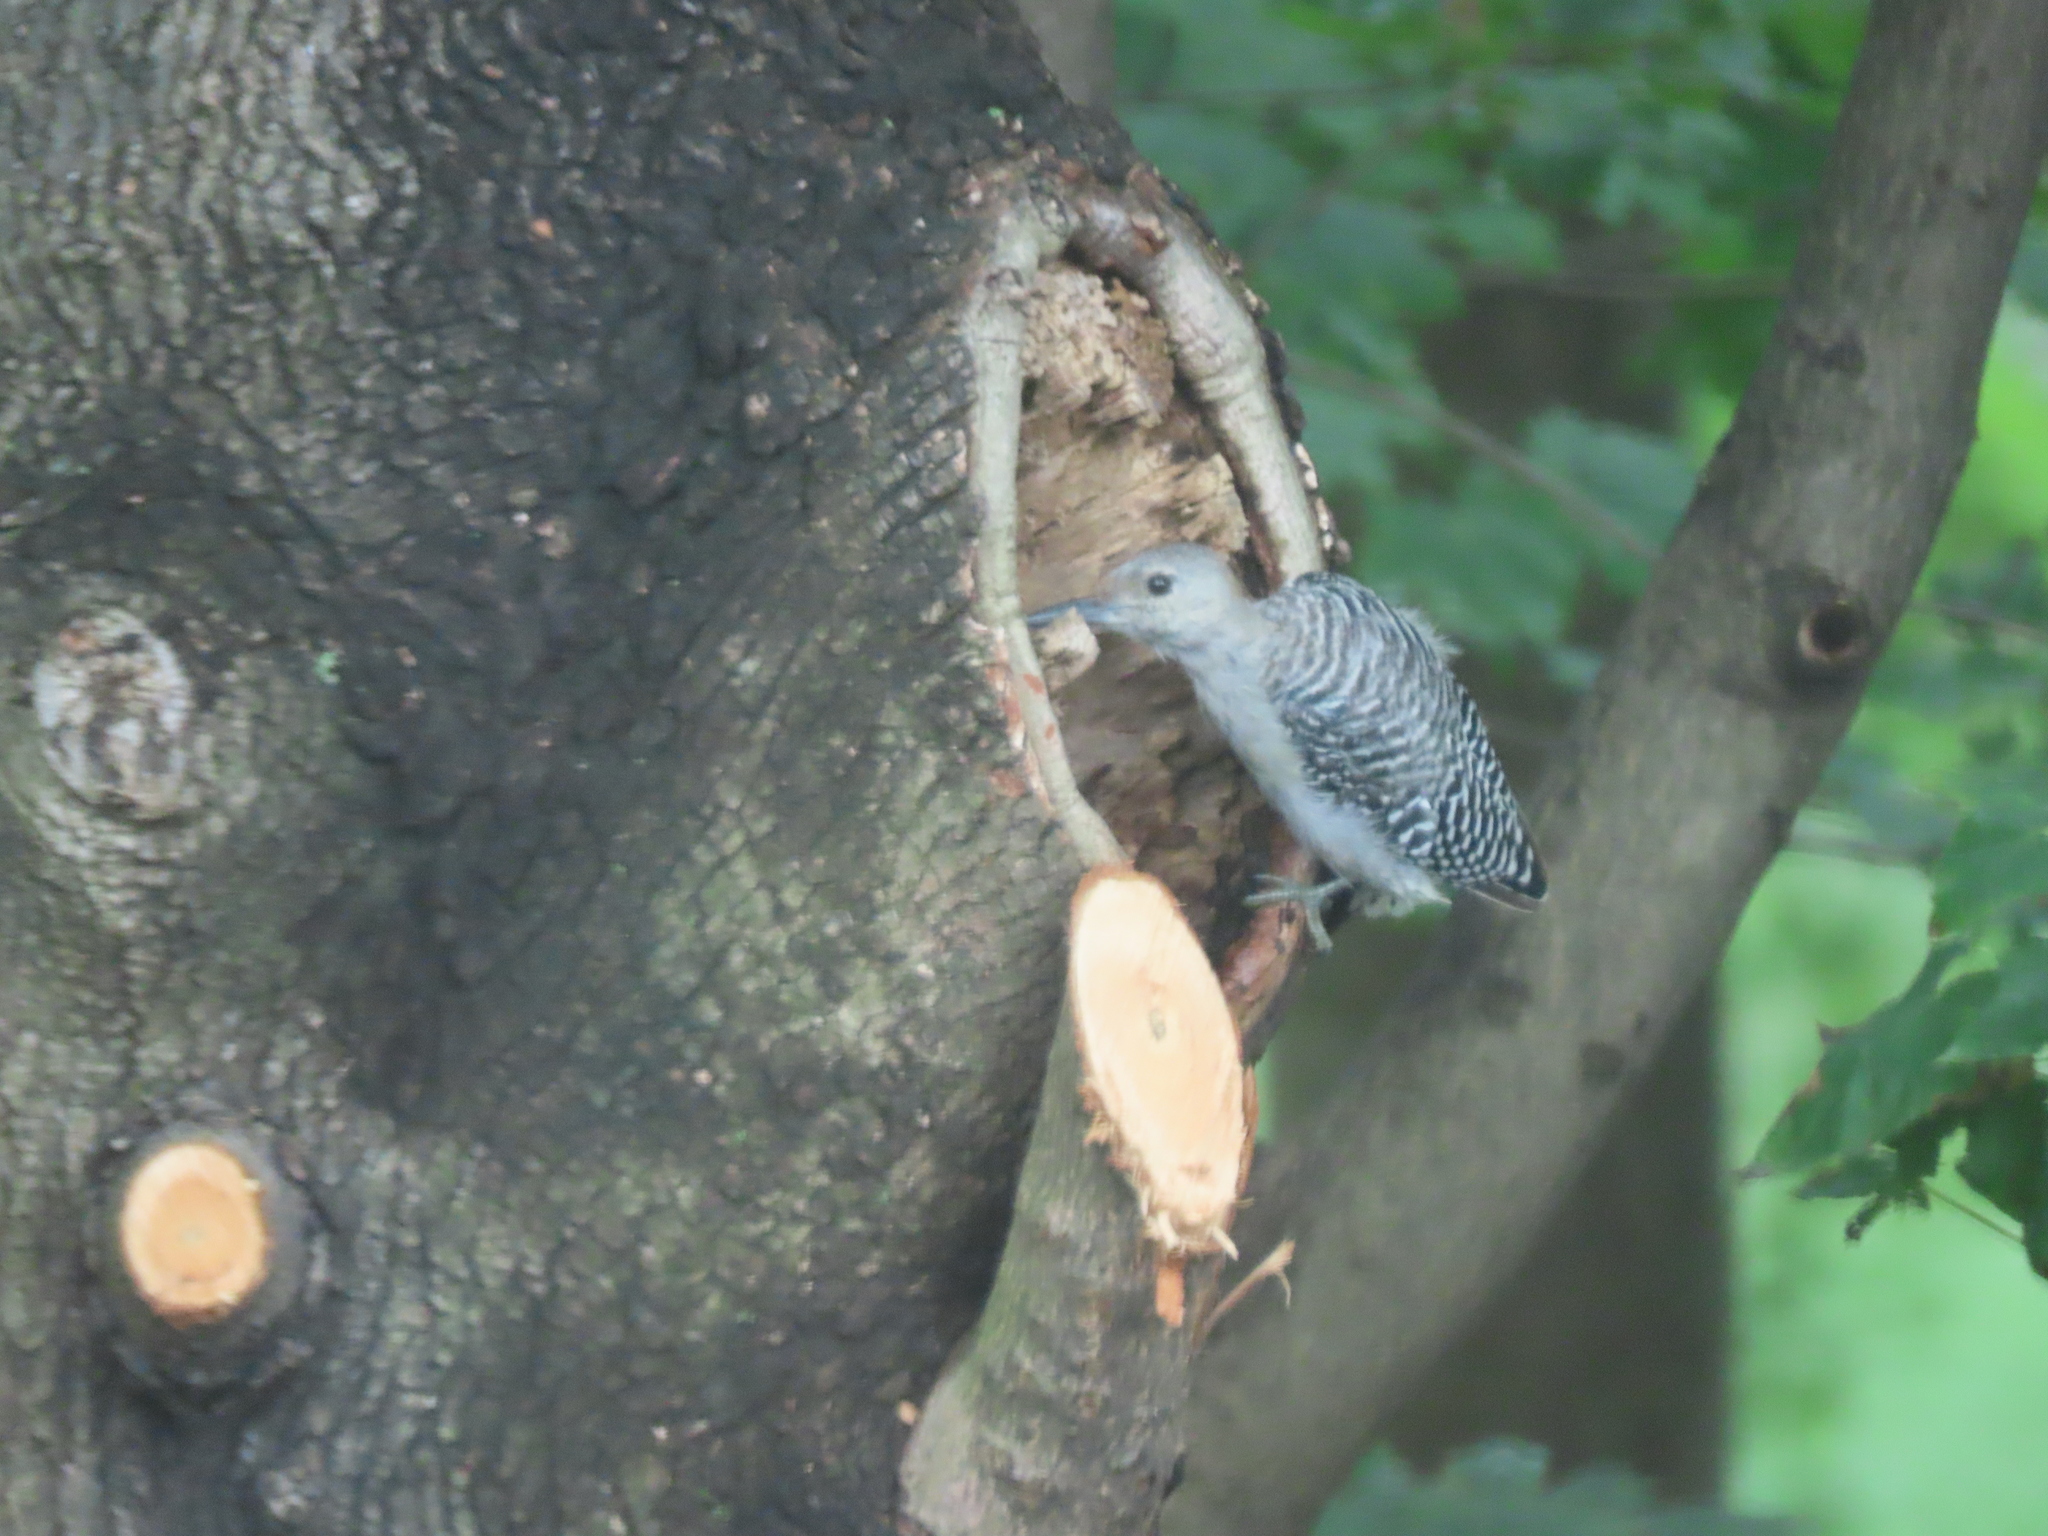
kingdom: Animalia
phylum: Chordata
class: Aves
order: Piciformes
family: Picidae
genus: Melanerpes
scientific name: Melanerpes carolinus
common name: Red-bellied woodpecker
